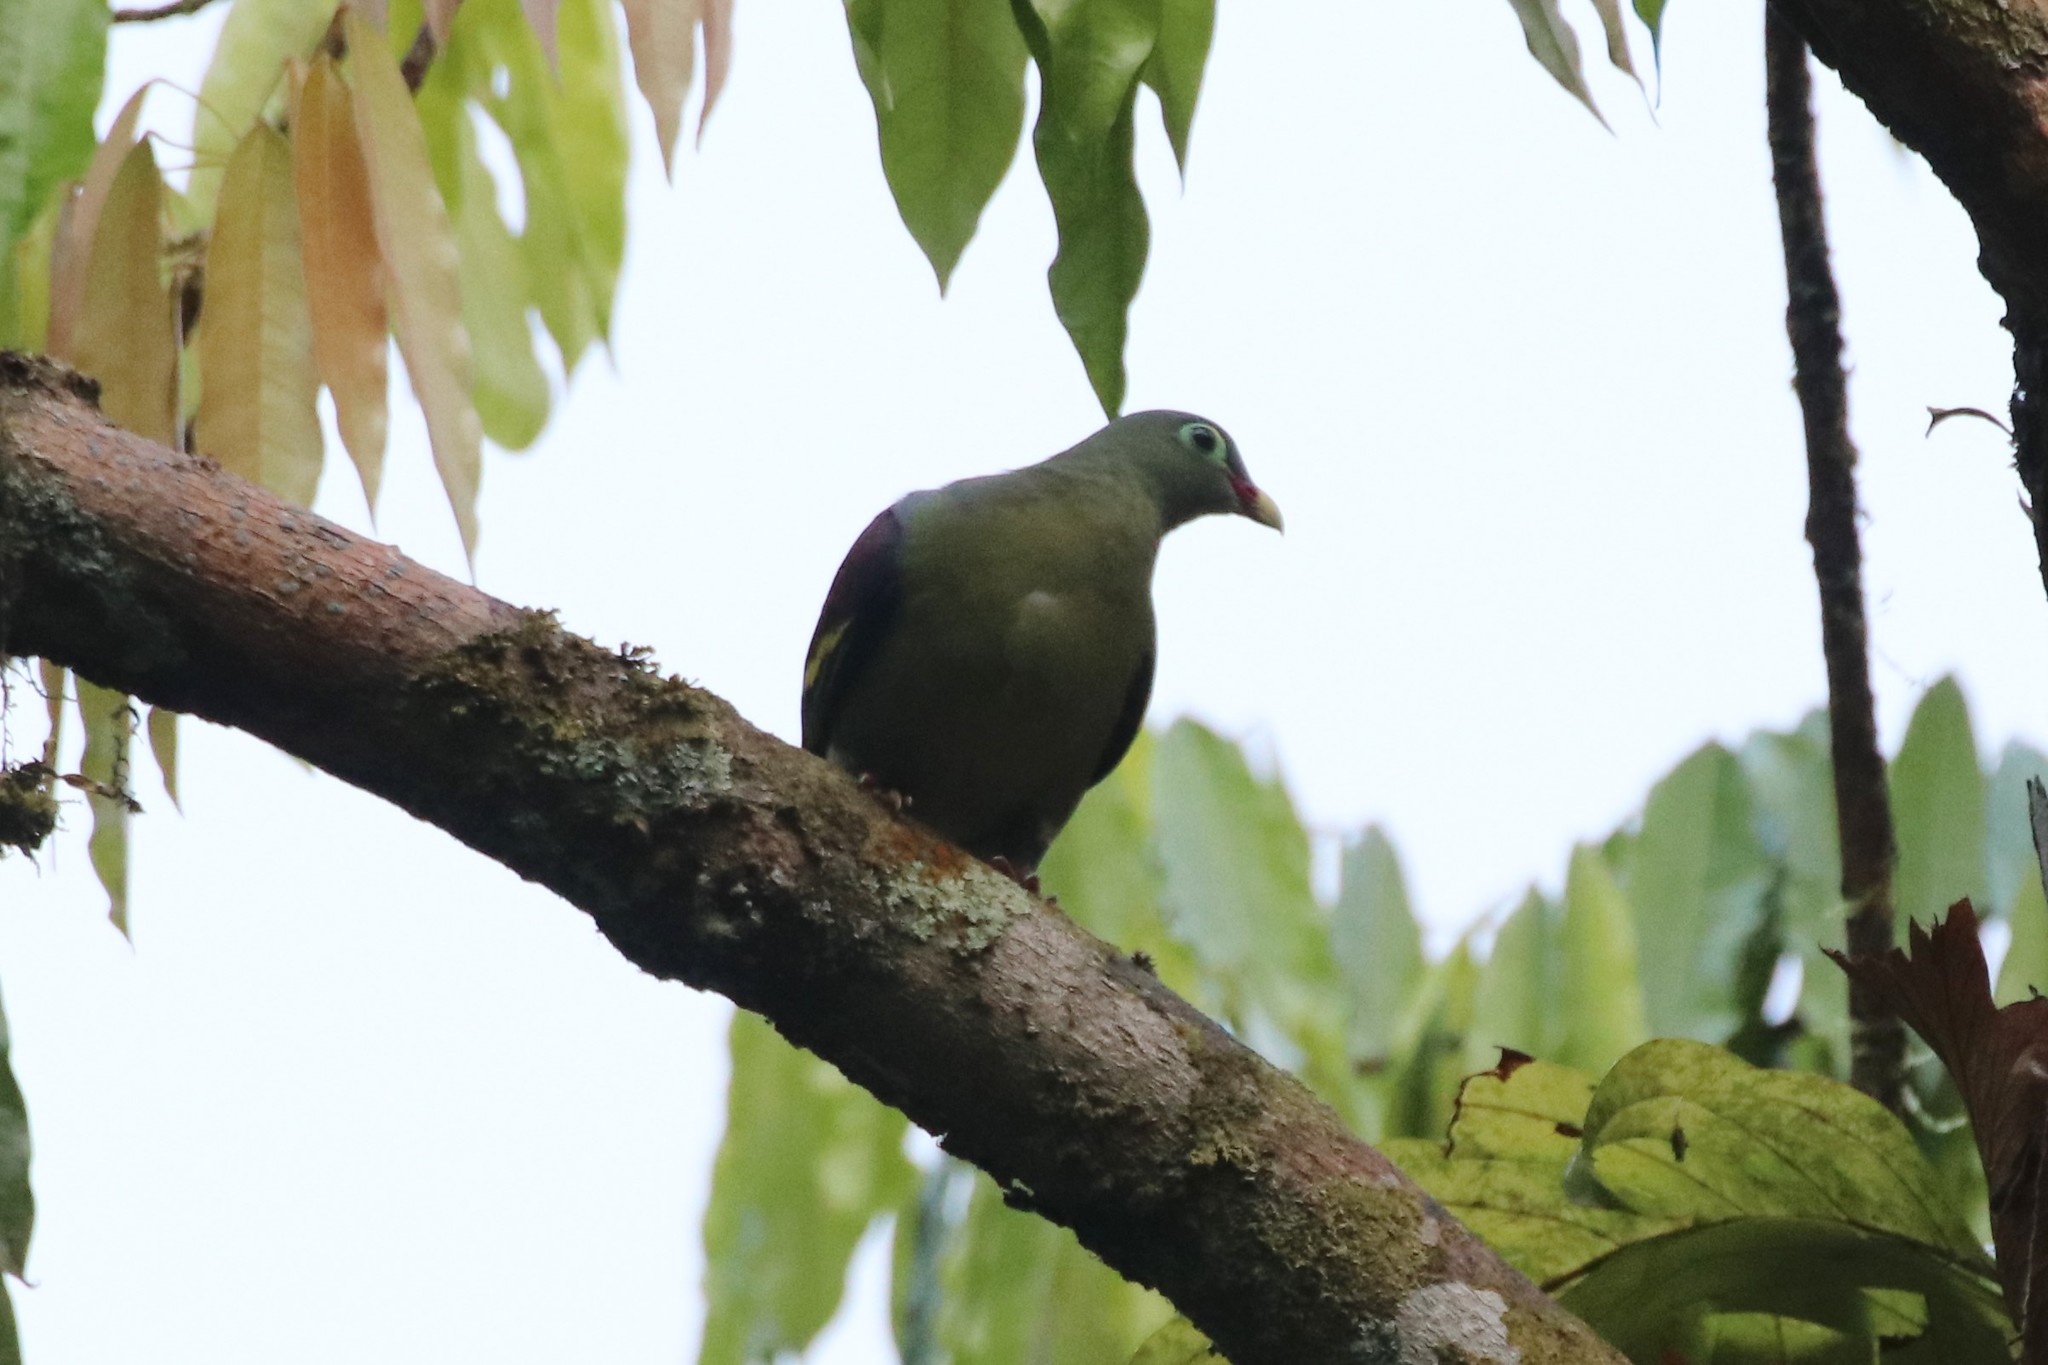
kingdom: Animalia
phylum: Chordata
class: Aves
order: Columbiformes
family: Columbidae
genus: Treron
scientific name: Treron curvirostra
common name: Thick-billed green pigeon
